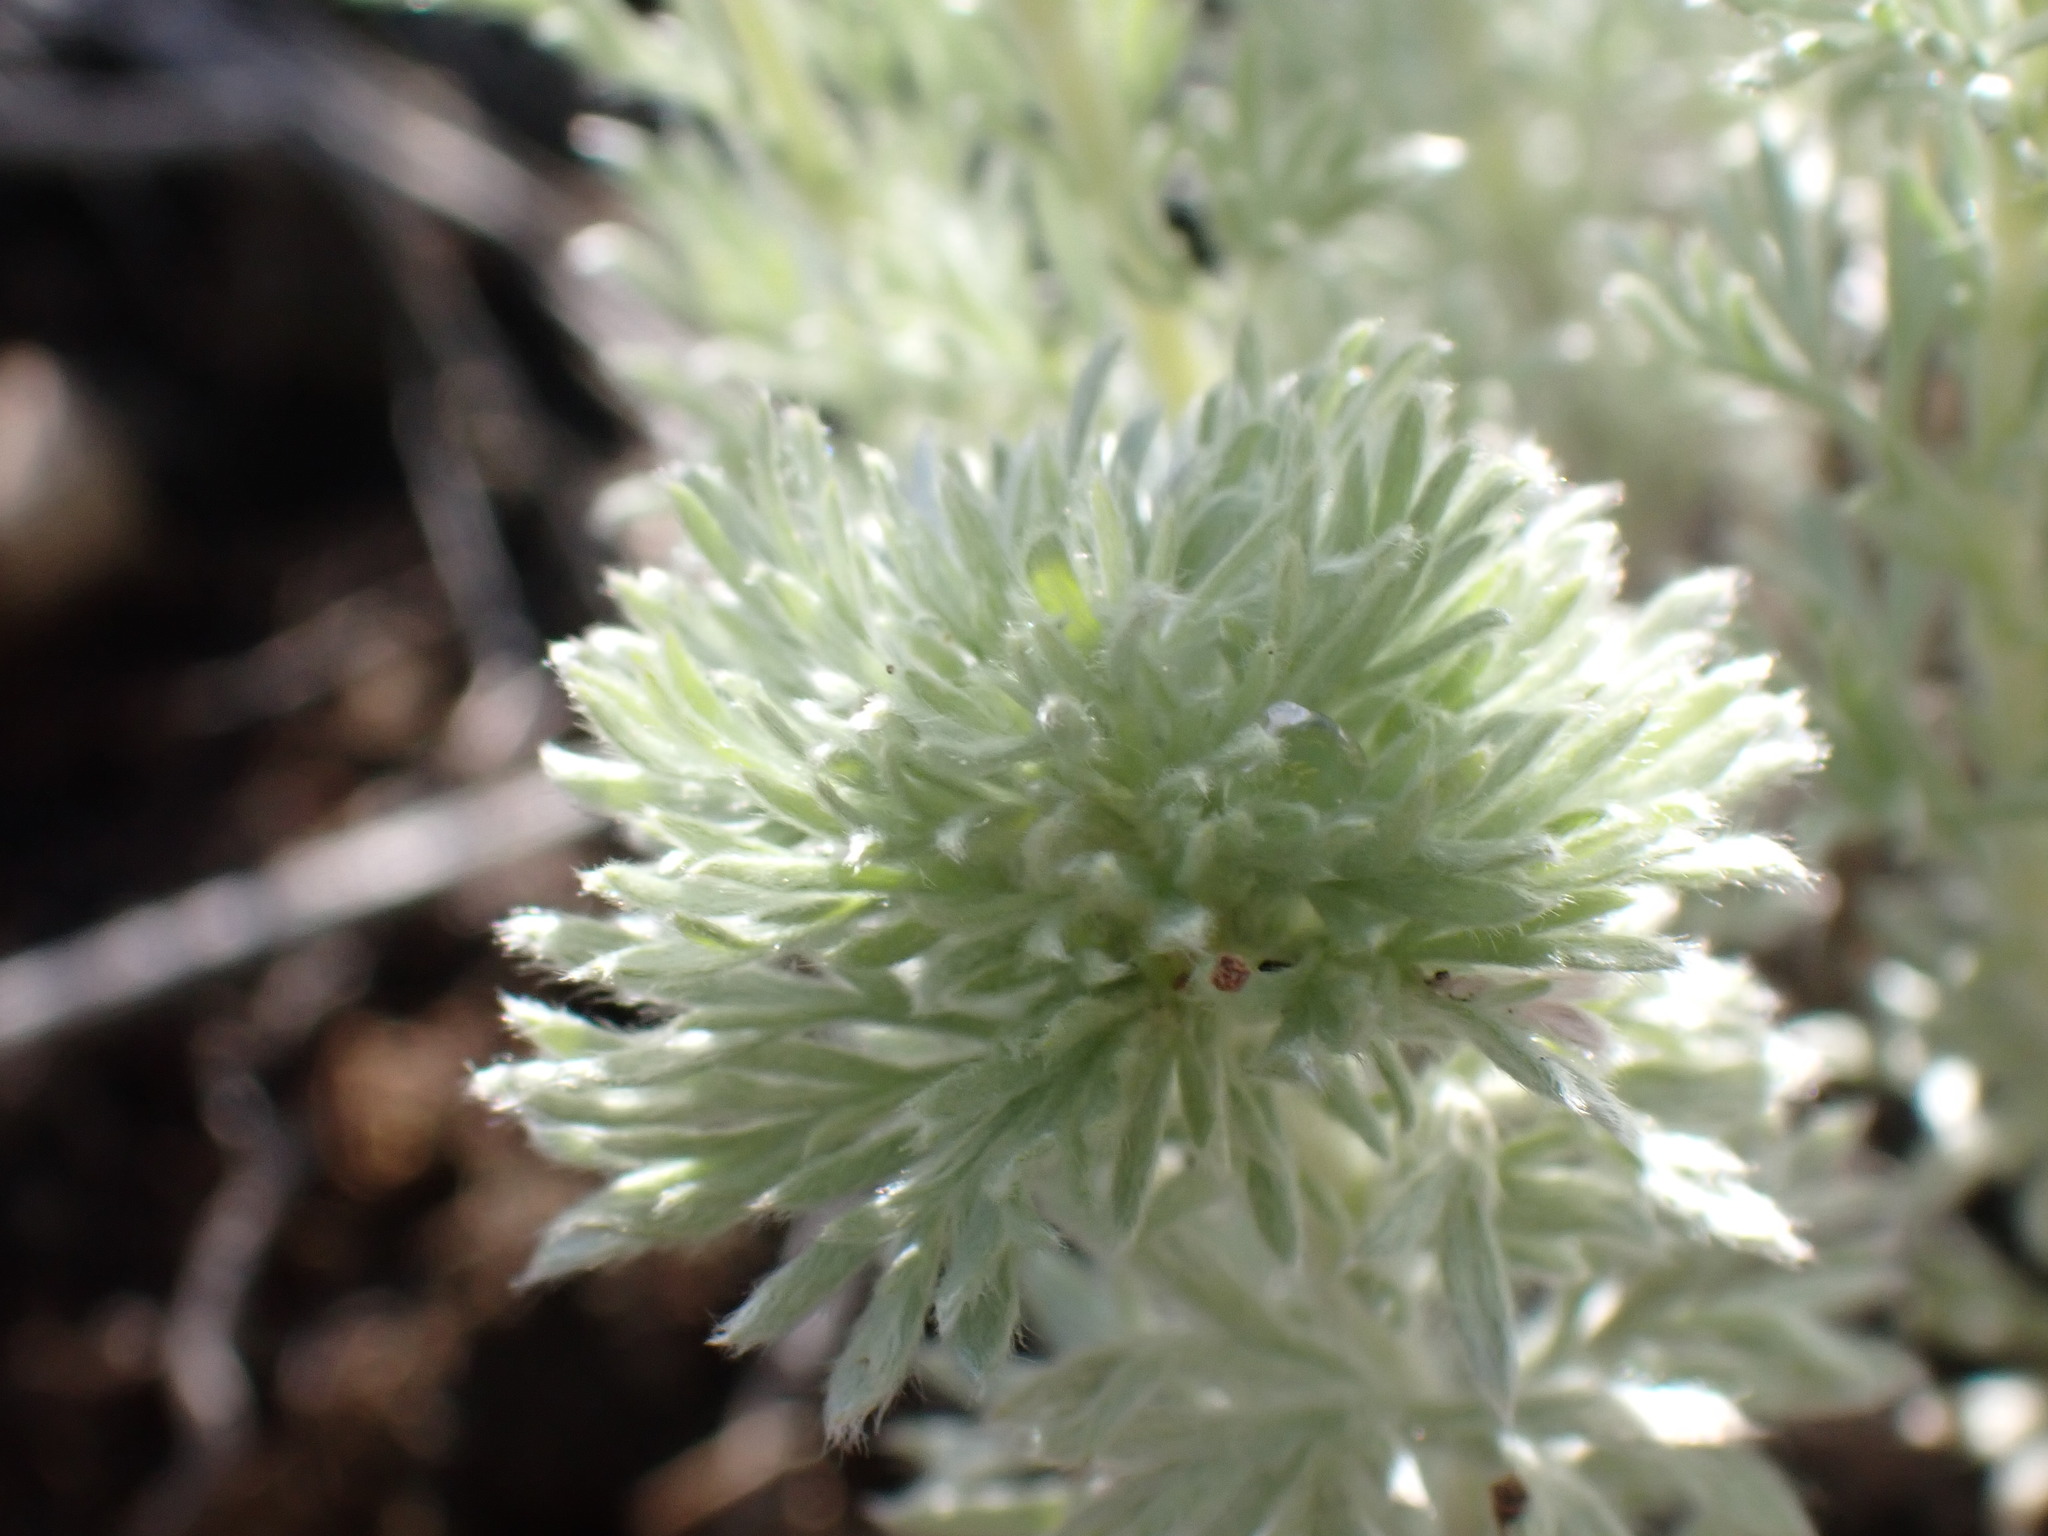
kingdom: Plantae
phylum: Tracheophyta
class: Magnoliopsida
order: Asterales
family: Asteraceae
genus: Artemisia
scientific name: Artemisia frigida
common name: Prairie sagewort
